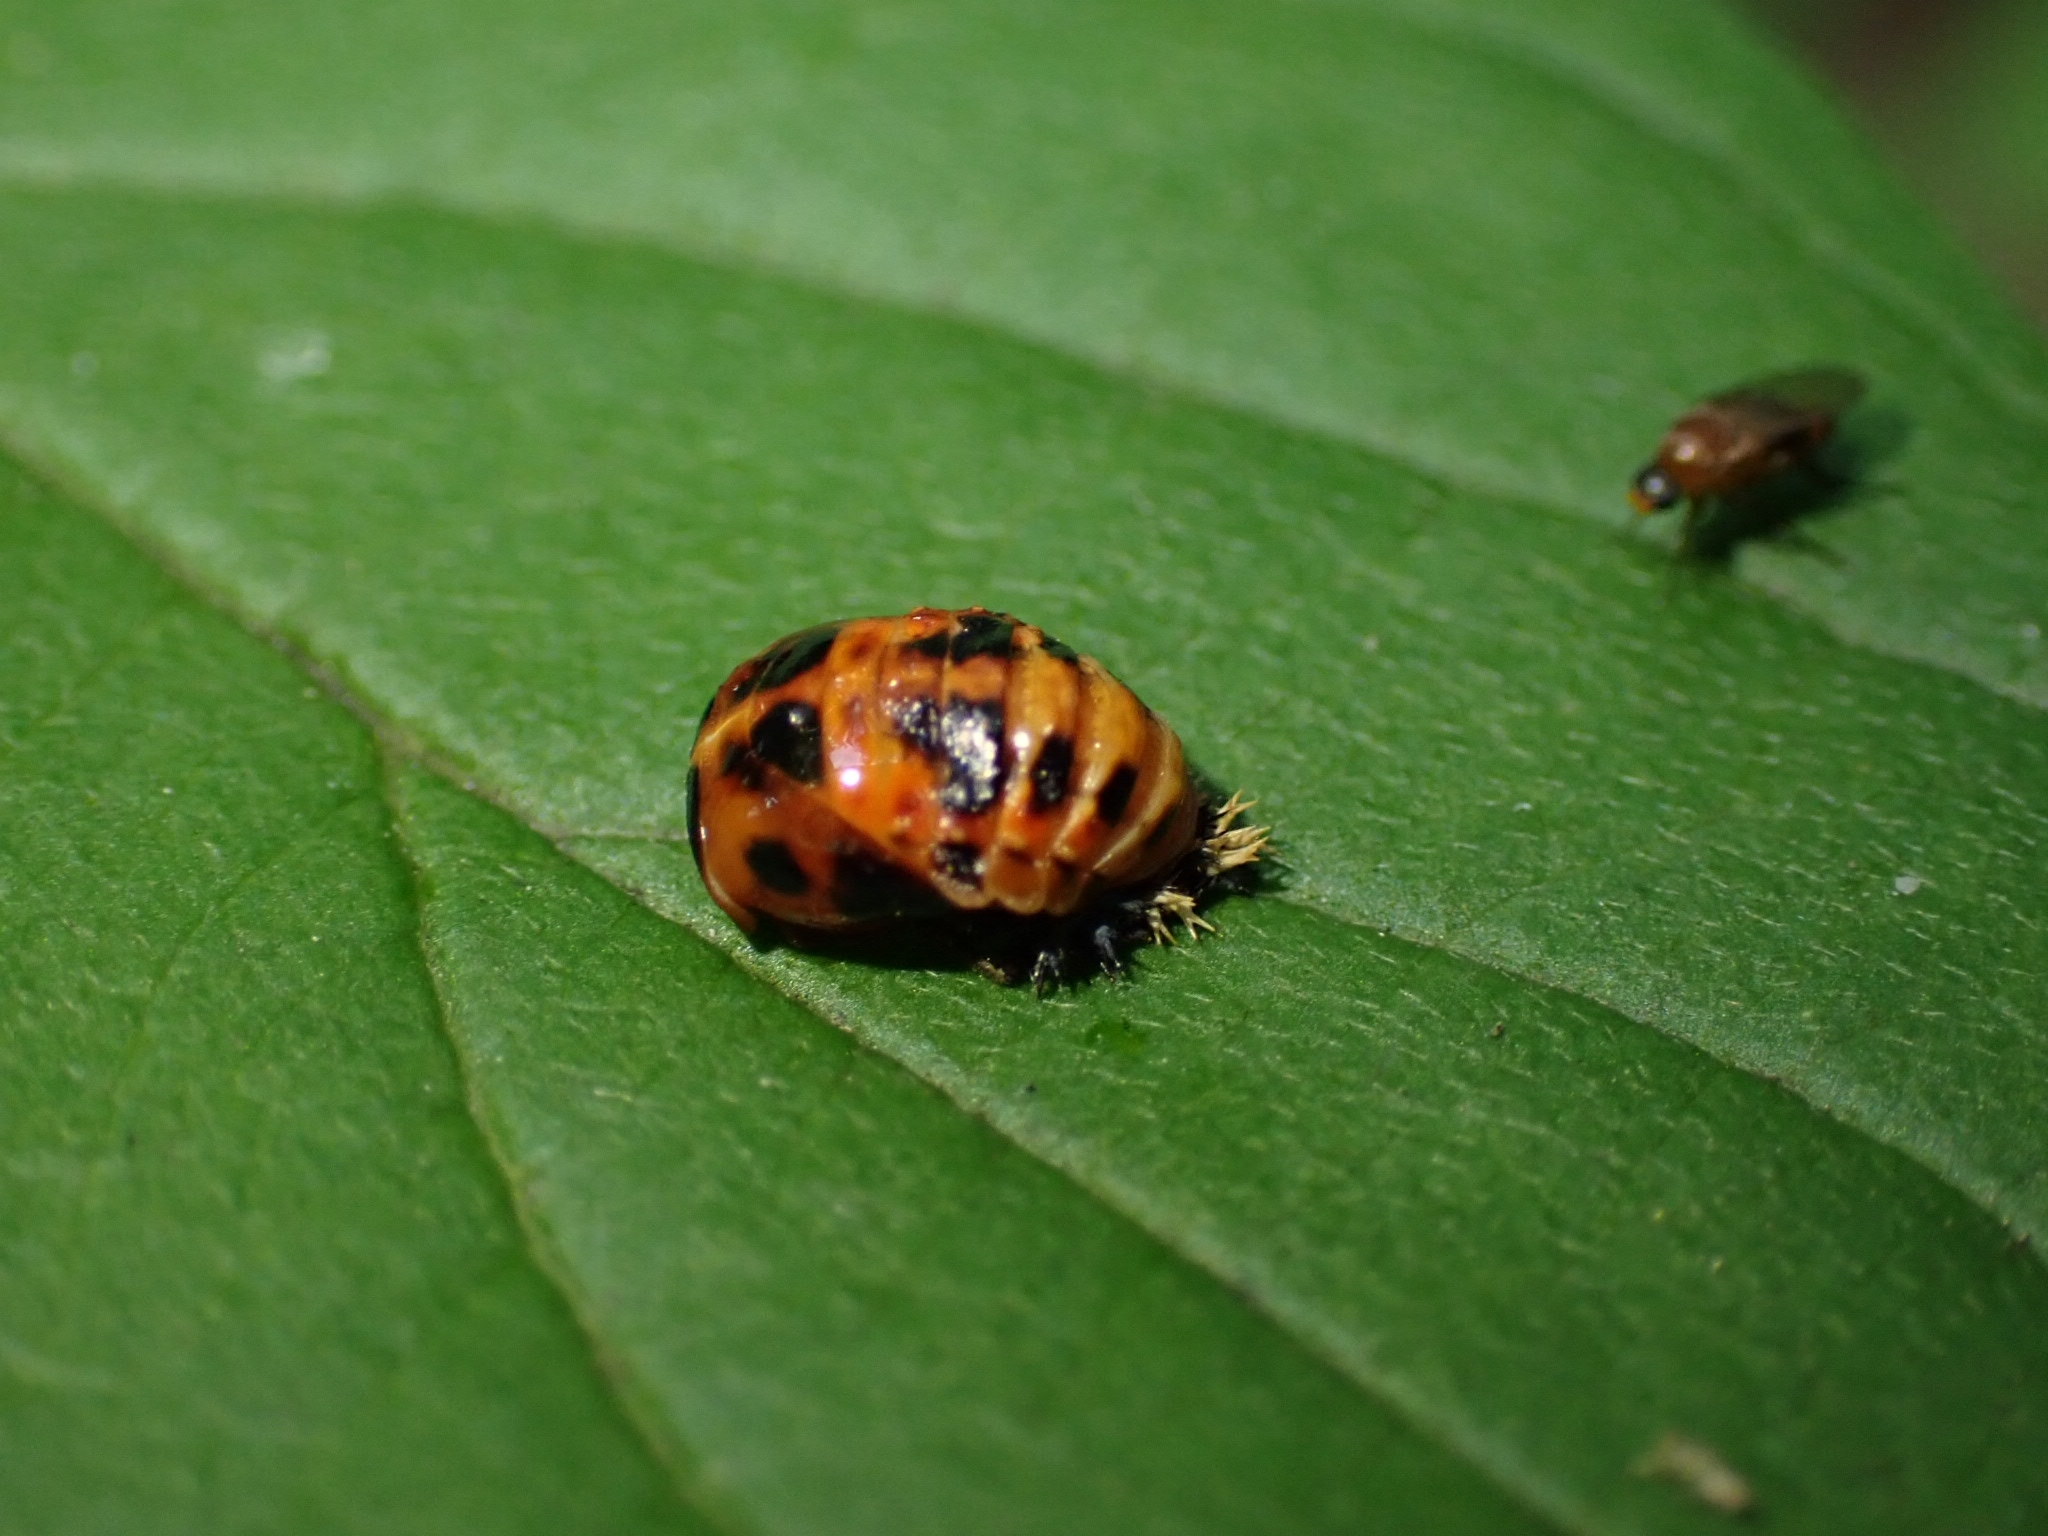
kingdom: Animalia
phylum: Arthropoda
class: Insecta
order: Coleoptera
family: Coccinellidae
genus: Harmonia
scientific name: Harmonia axyridis
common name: Harlequin ladybird
